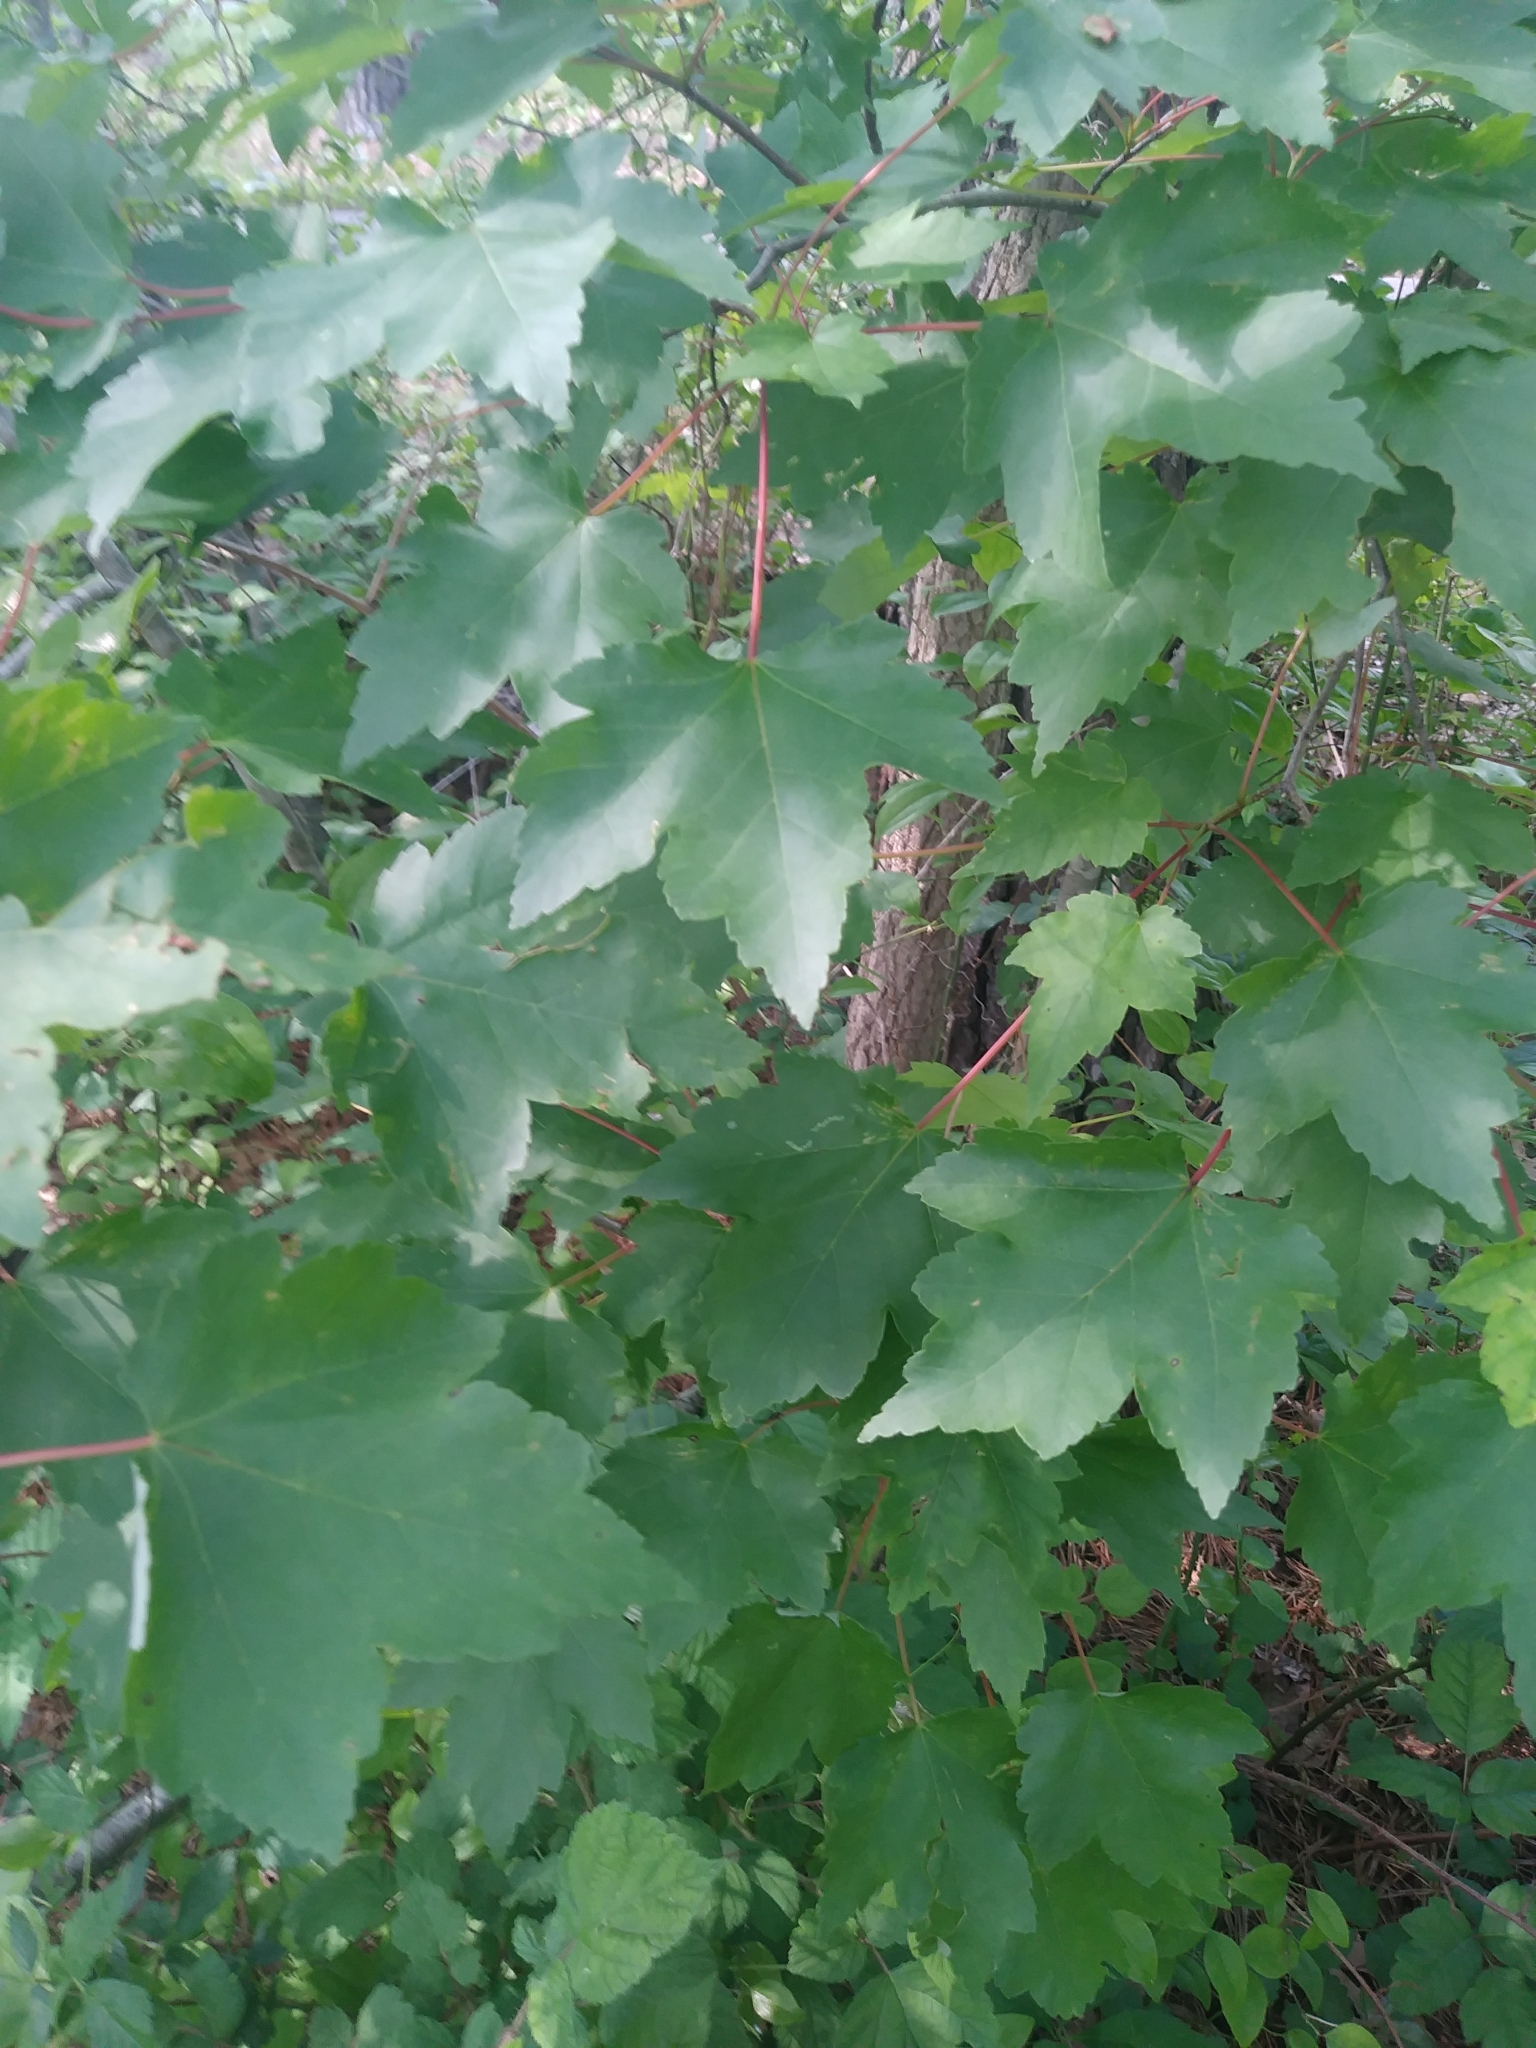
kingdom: Plantae
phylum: Tracheophyta
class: Magnoliopsida
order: Sapindales
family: Sapindaceae
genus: Acer
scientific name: Acer rubrum
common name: Red maple
